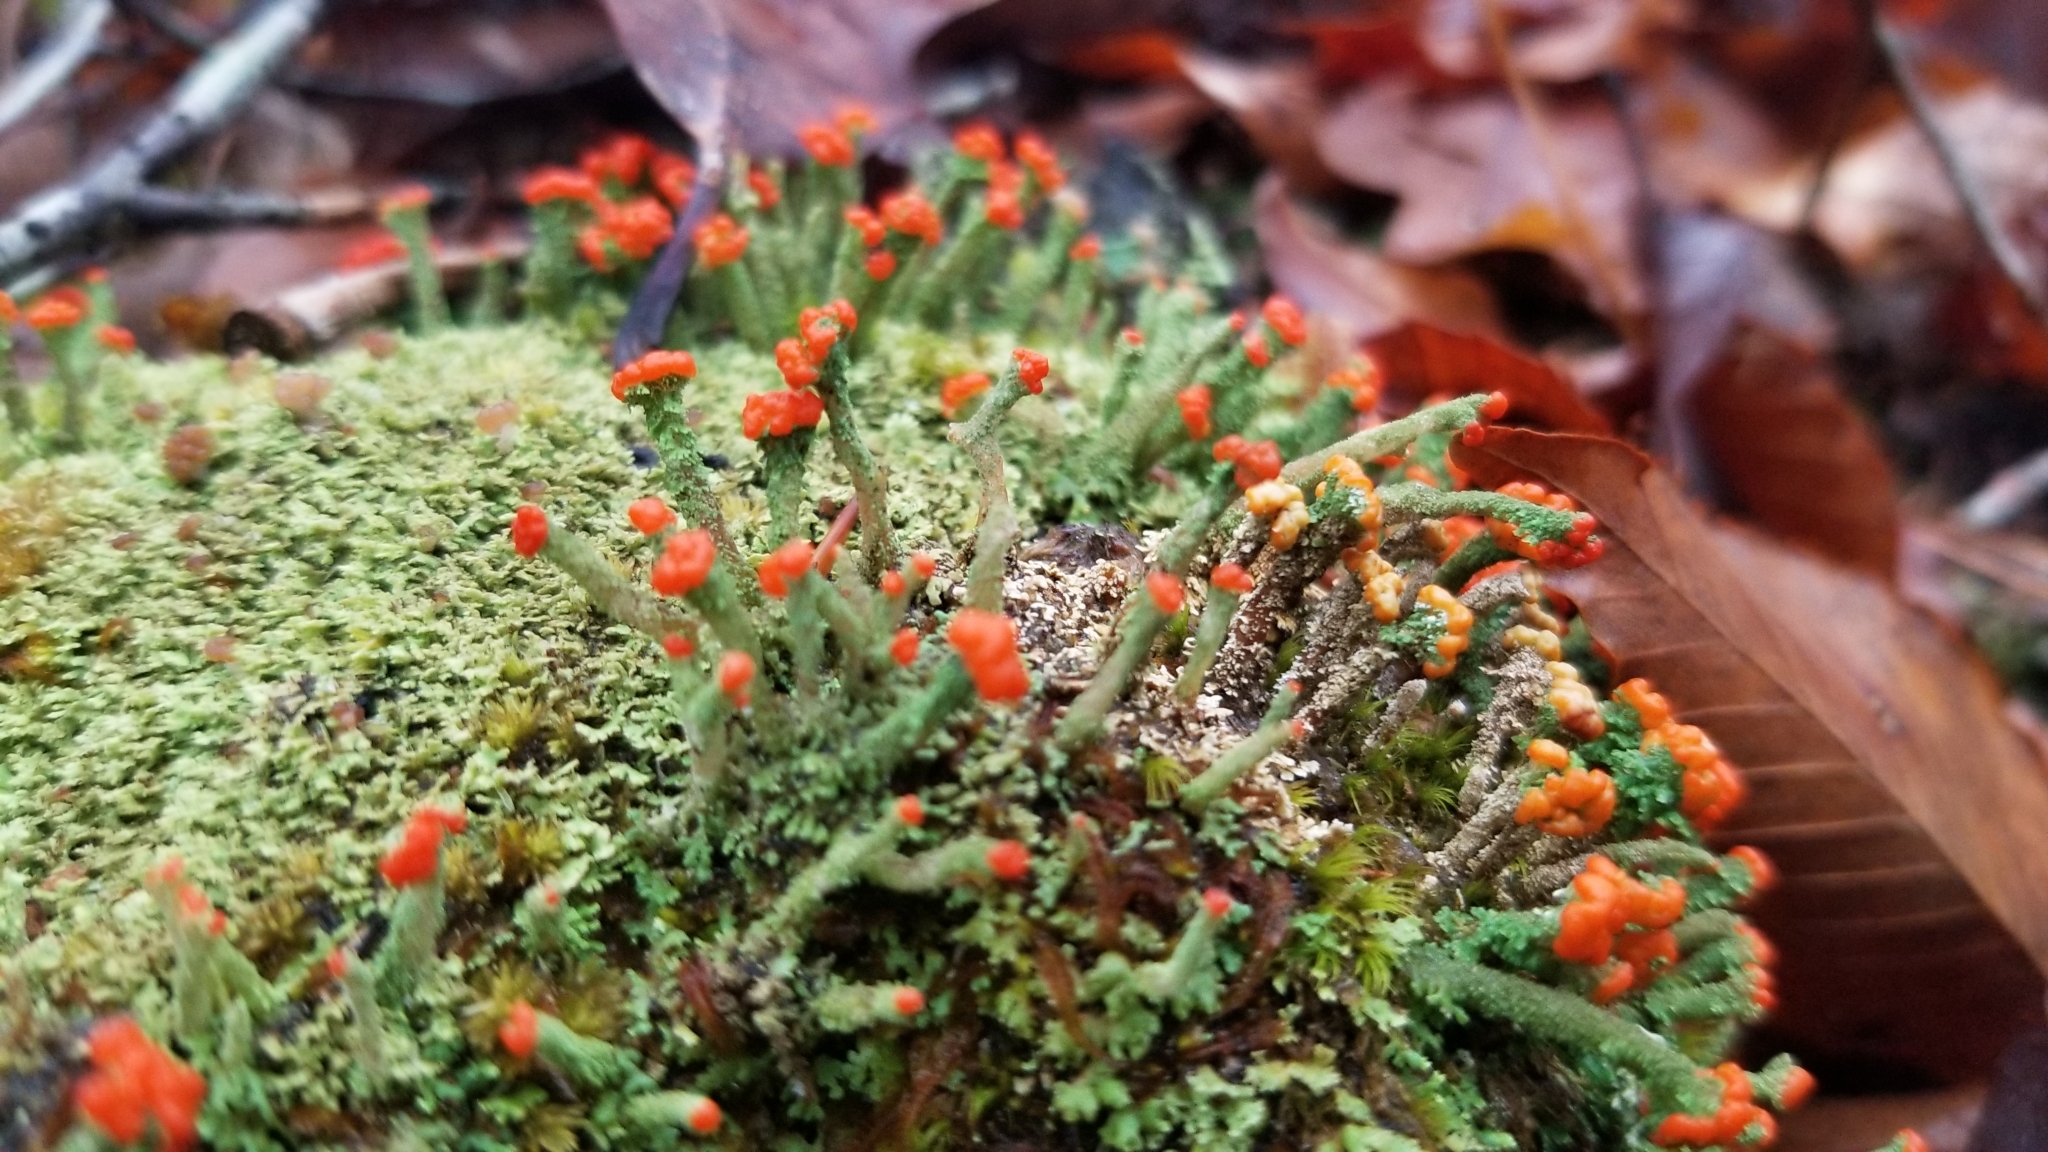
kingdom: Fungi
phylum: Ascomycota
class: Lecanoromycetes
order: Lecanorales
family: Cladoniaceae
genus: Cladonia
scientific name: Cladonia cristatella
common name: British soldier lichen
